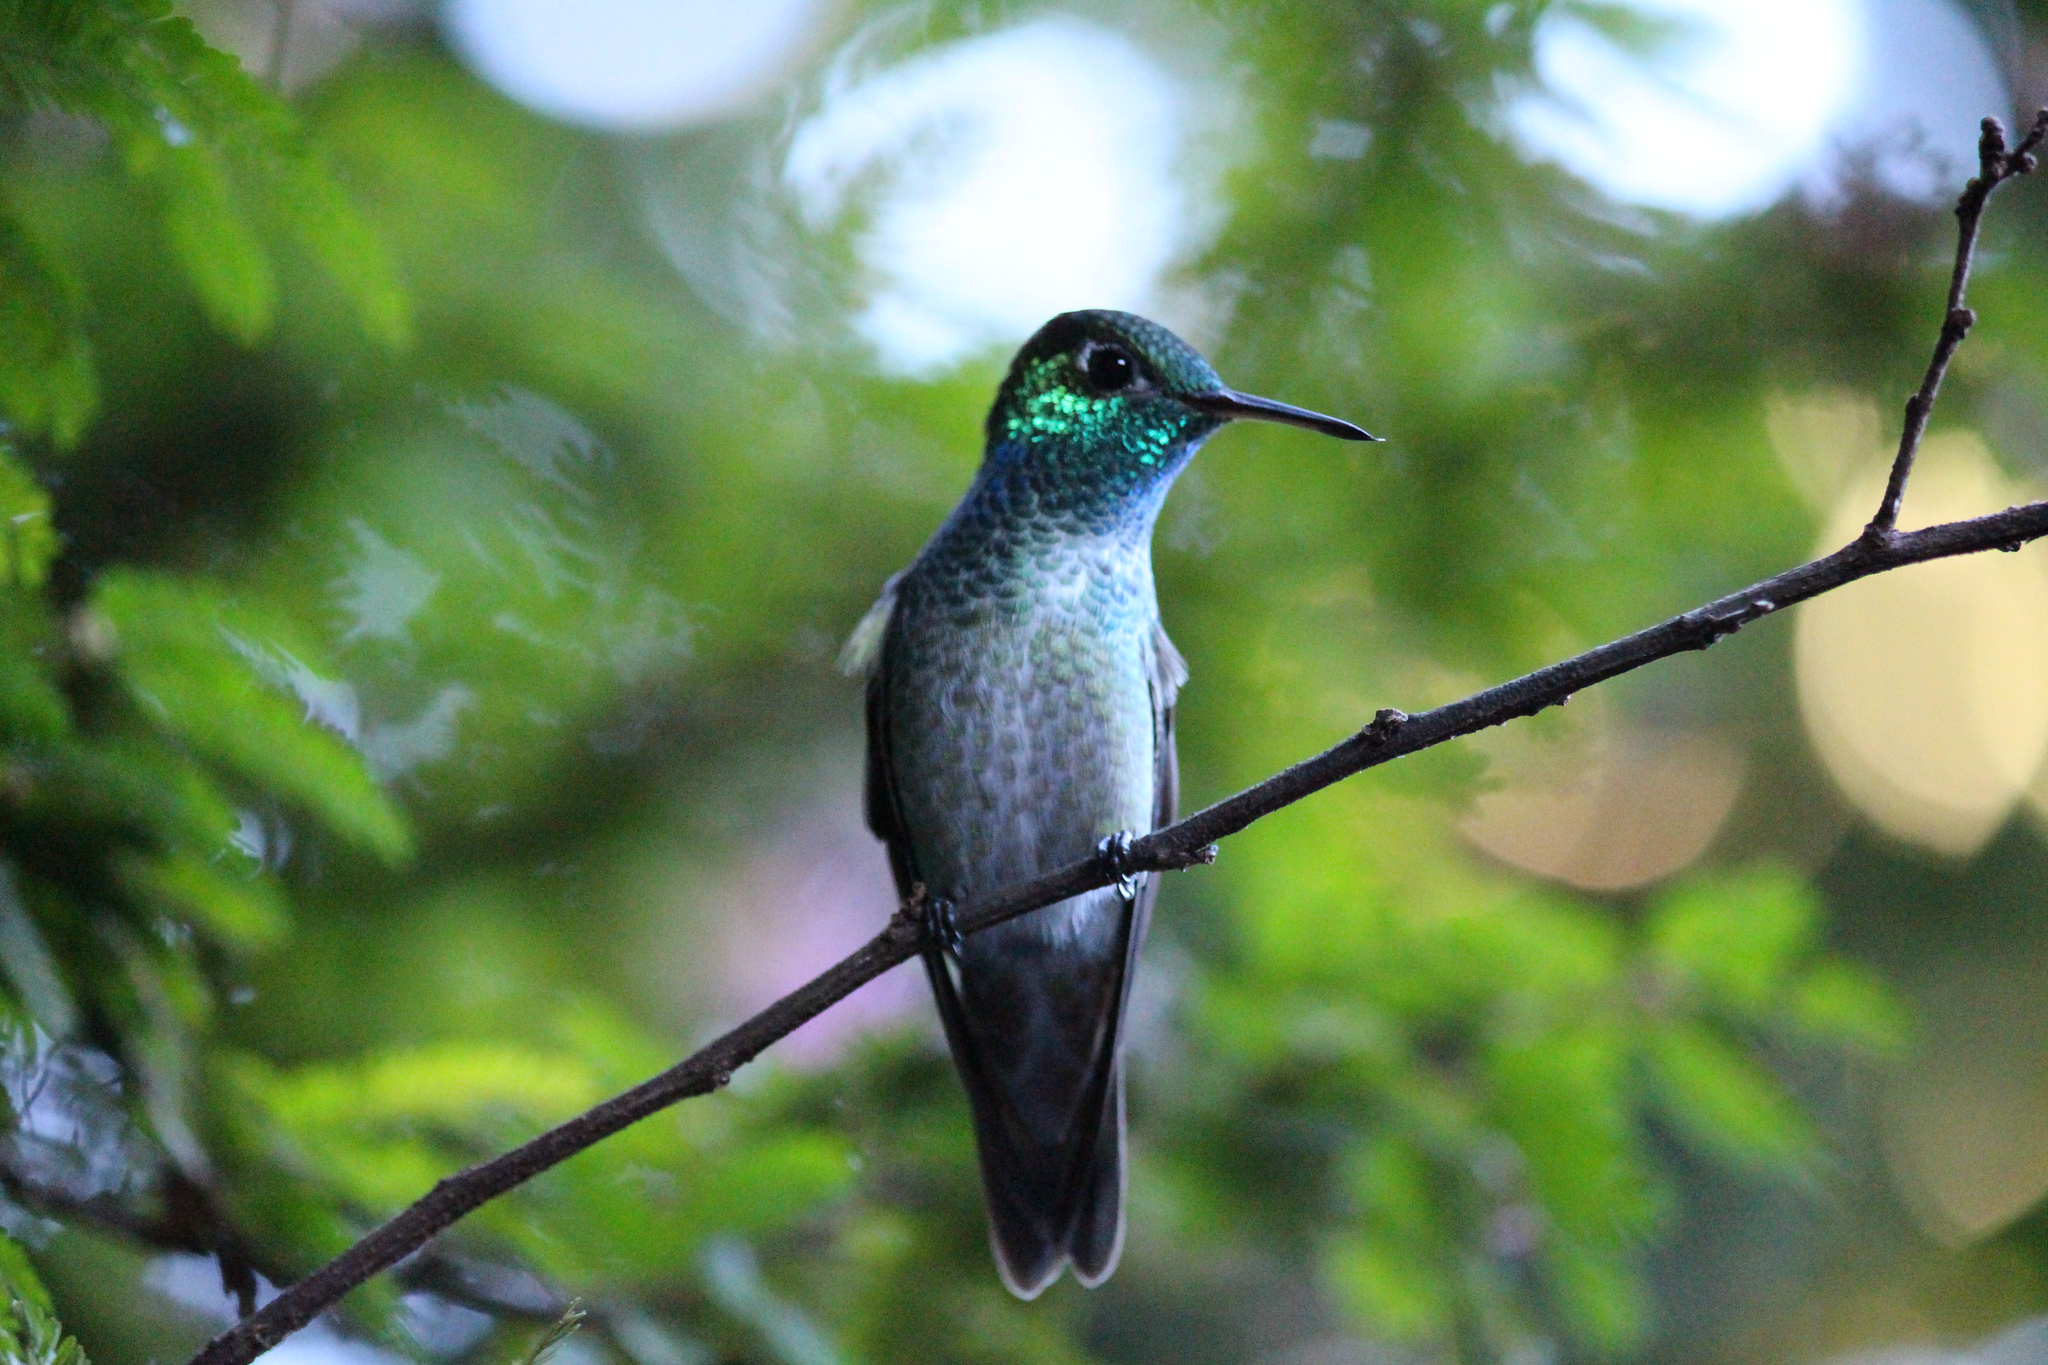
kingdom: Animalia
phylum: Chordata
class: Aves
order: Apodiformes
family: Trochilidae
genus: Chrysuronia
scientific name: Chrysuronia versicolor
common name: Versicolored emerald
